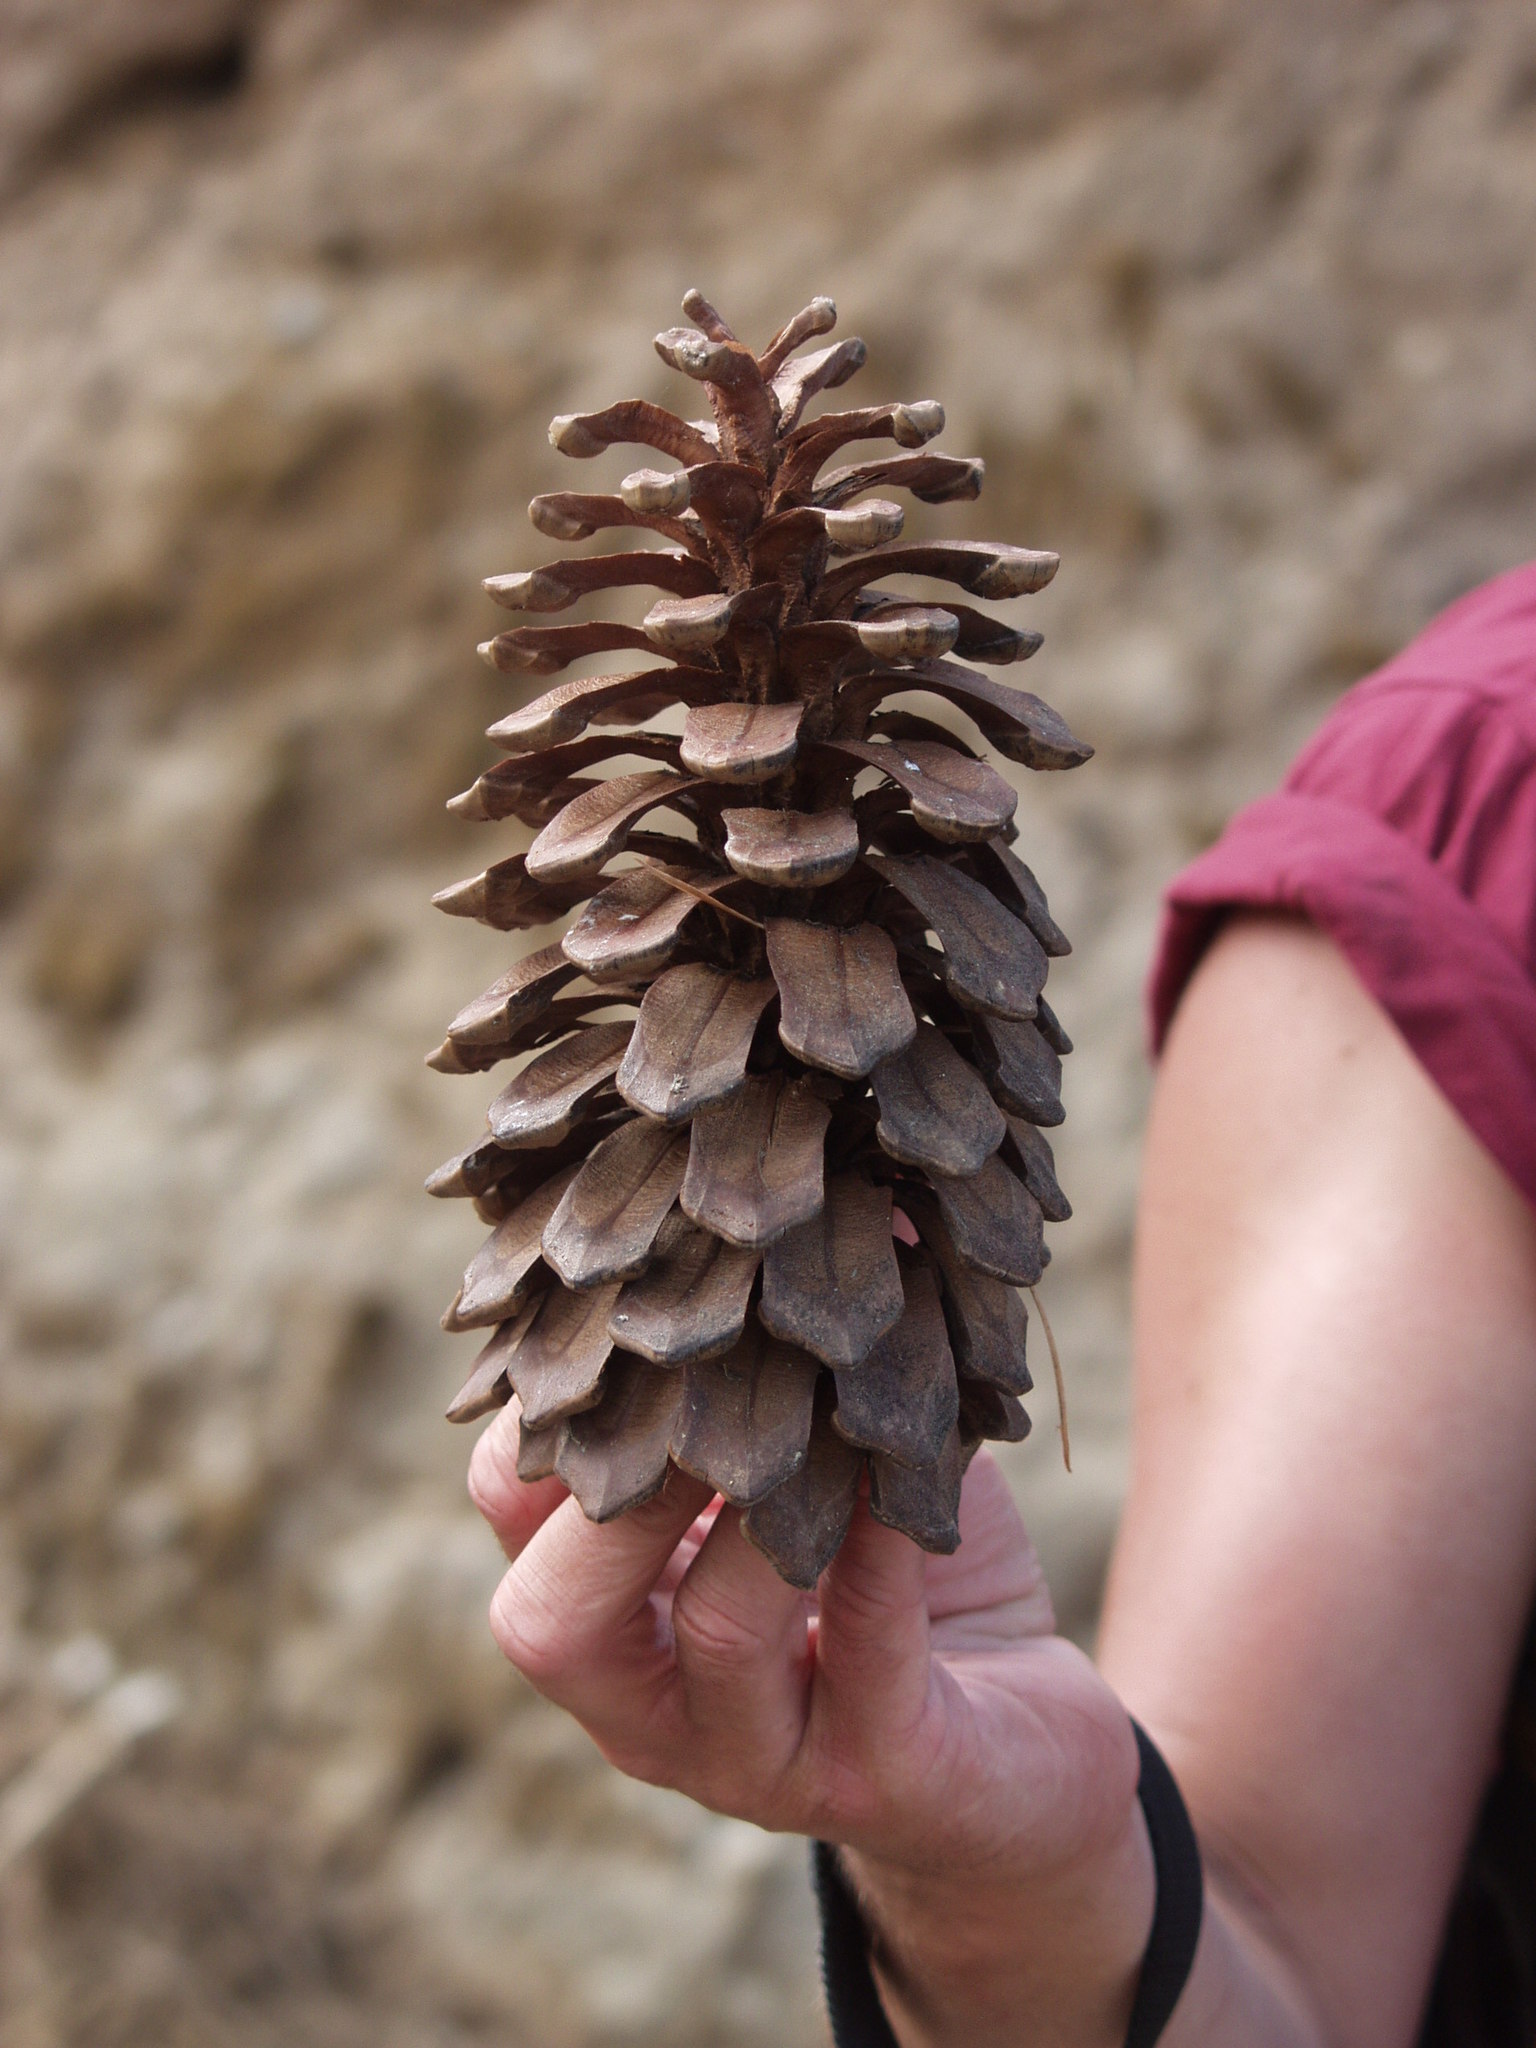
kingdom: Plantae
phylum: Tracheophyta
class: Pinopsida
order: Pinales
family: Pinaceae
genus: Pinus
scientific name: Pinus canariensis
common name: Canary islands pine
